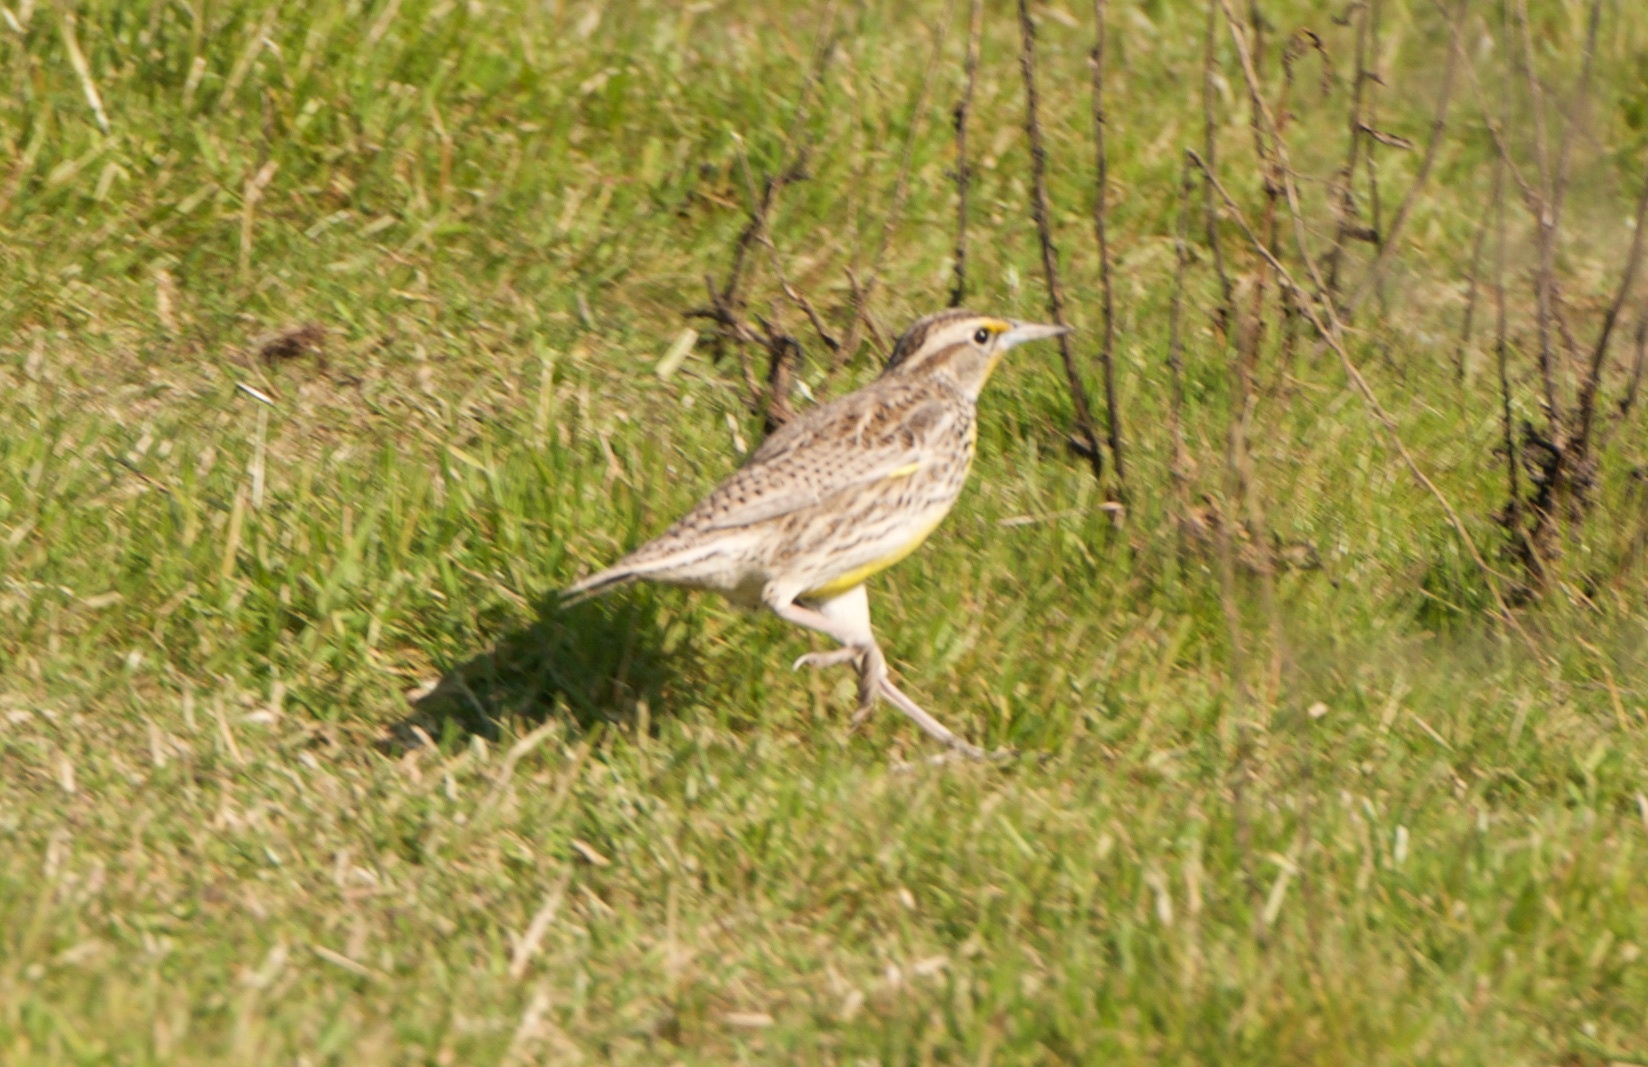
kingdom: Animalia
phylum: Chordata
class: Aves
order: Passeriformes
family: Icteridae
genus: Sturnella
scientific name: Sturnella neglecta
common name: Western meadowlark
